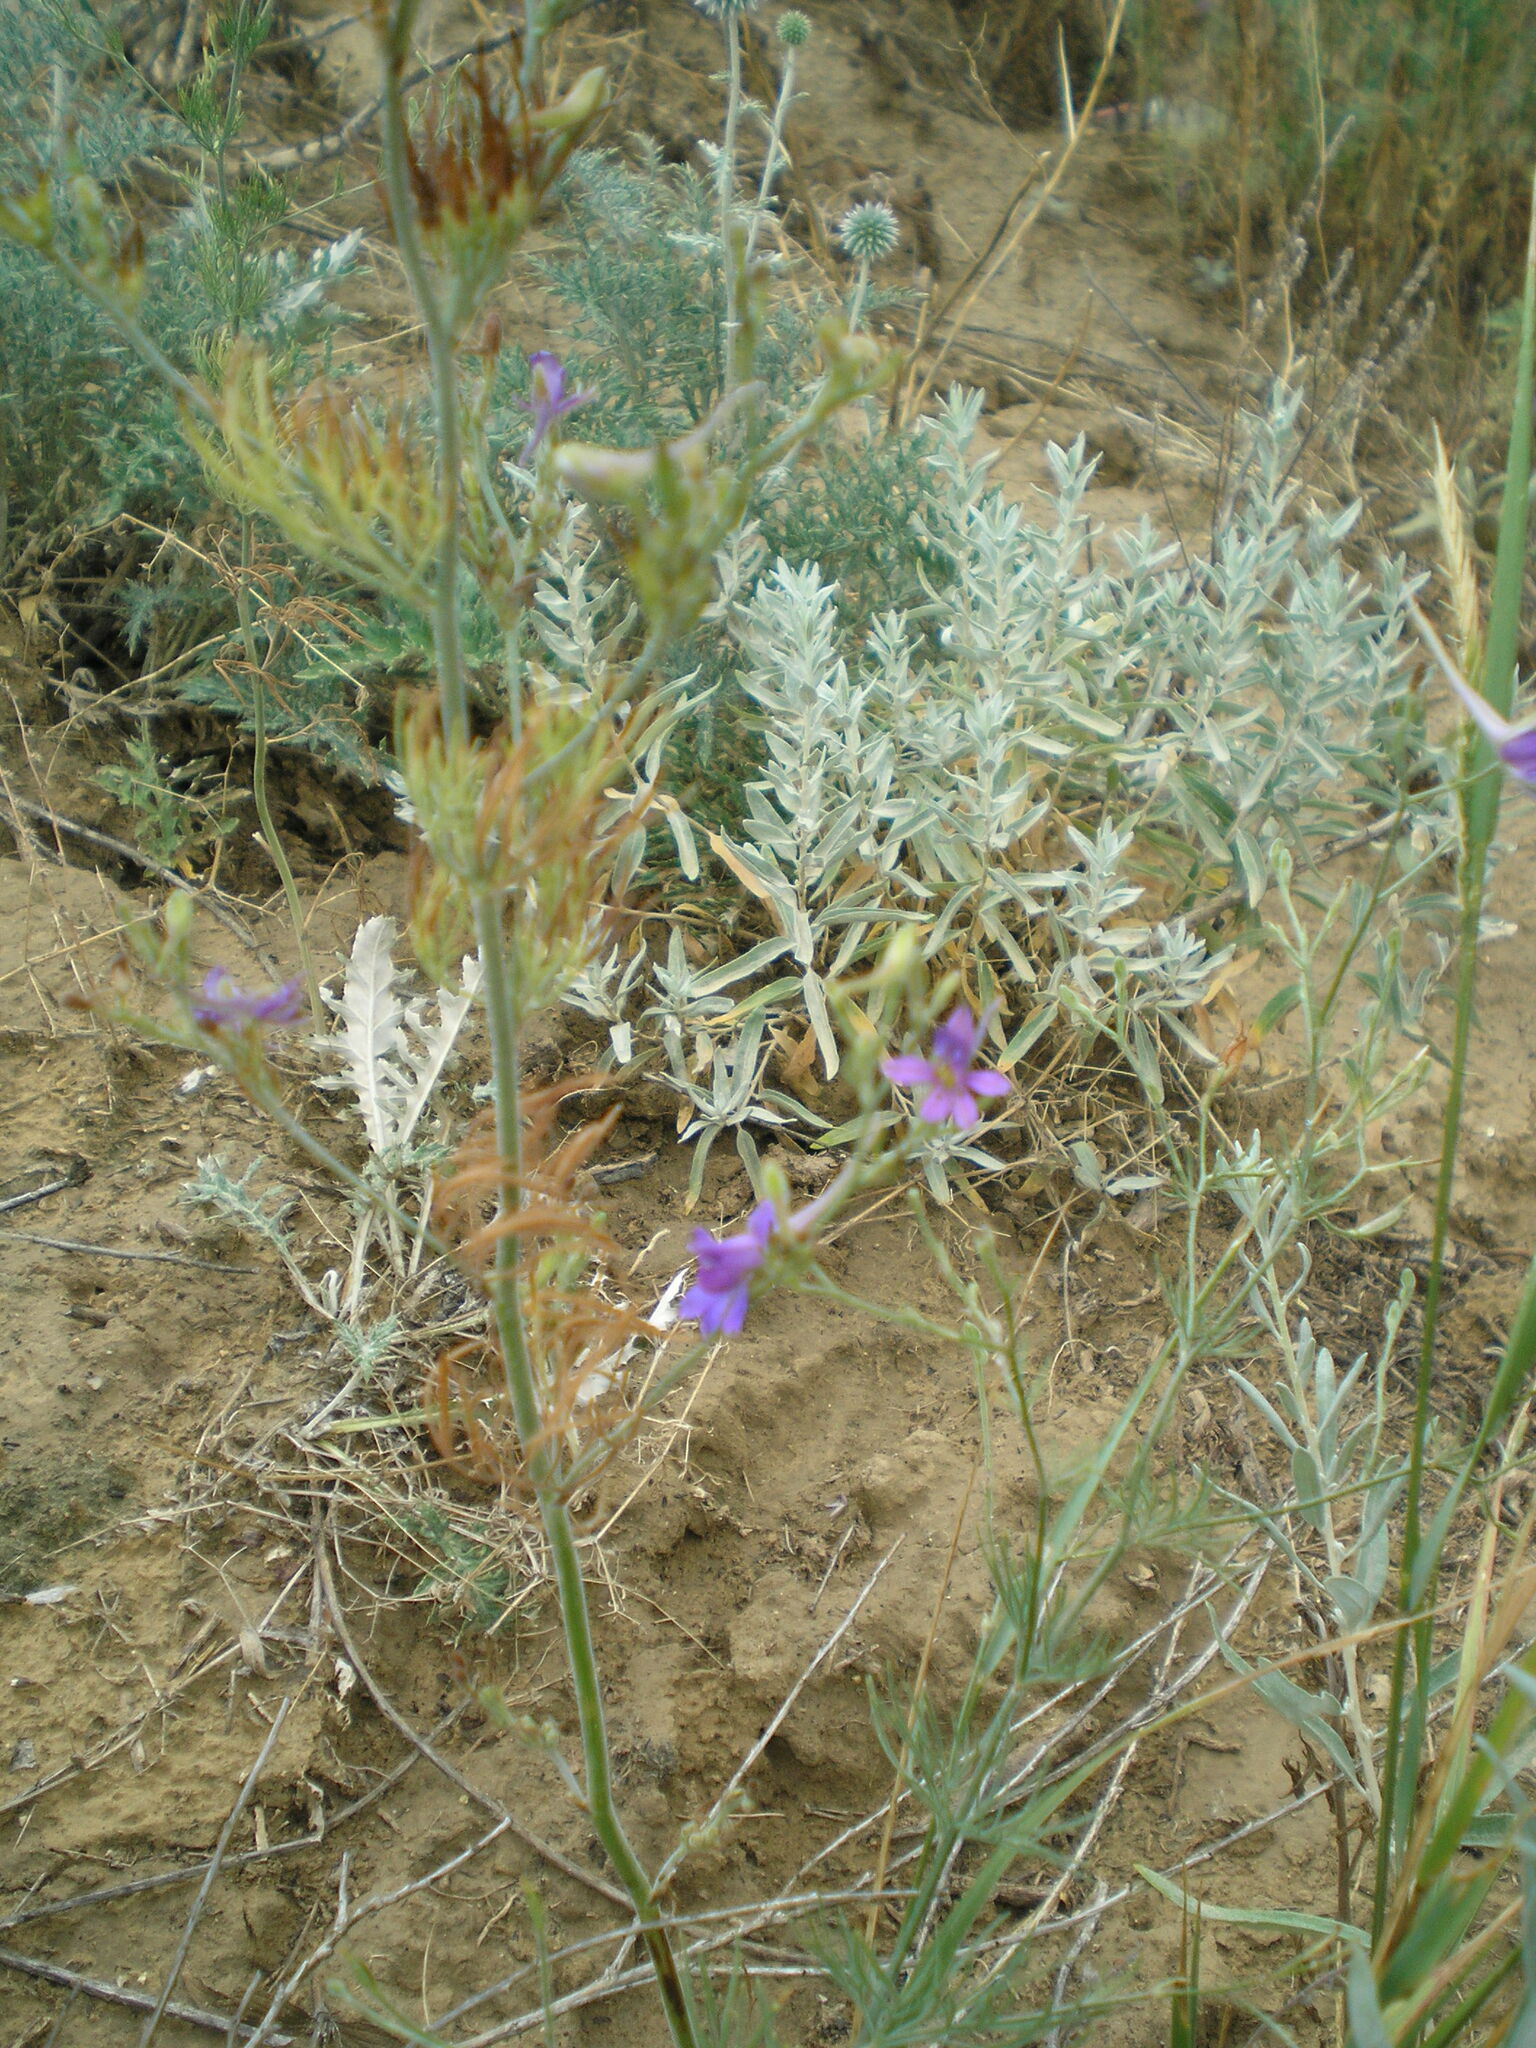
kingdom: Plantae
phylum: Tracheophyta
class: Magnoliopsida
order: Ranunculales
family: Ranunculaceae
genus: Delphinium
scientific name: Delphinium consolida
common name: Branching larkspur
